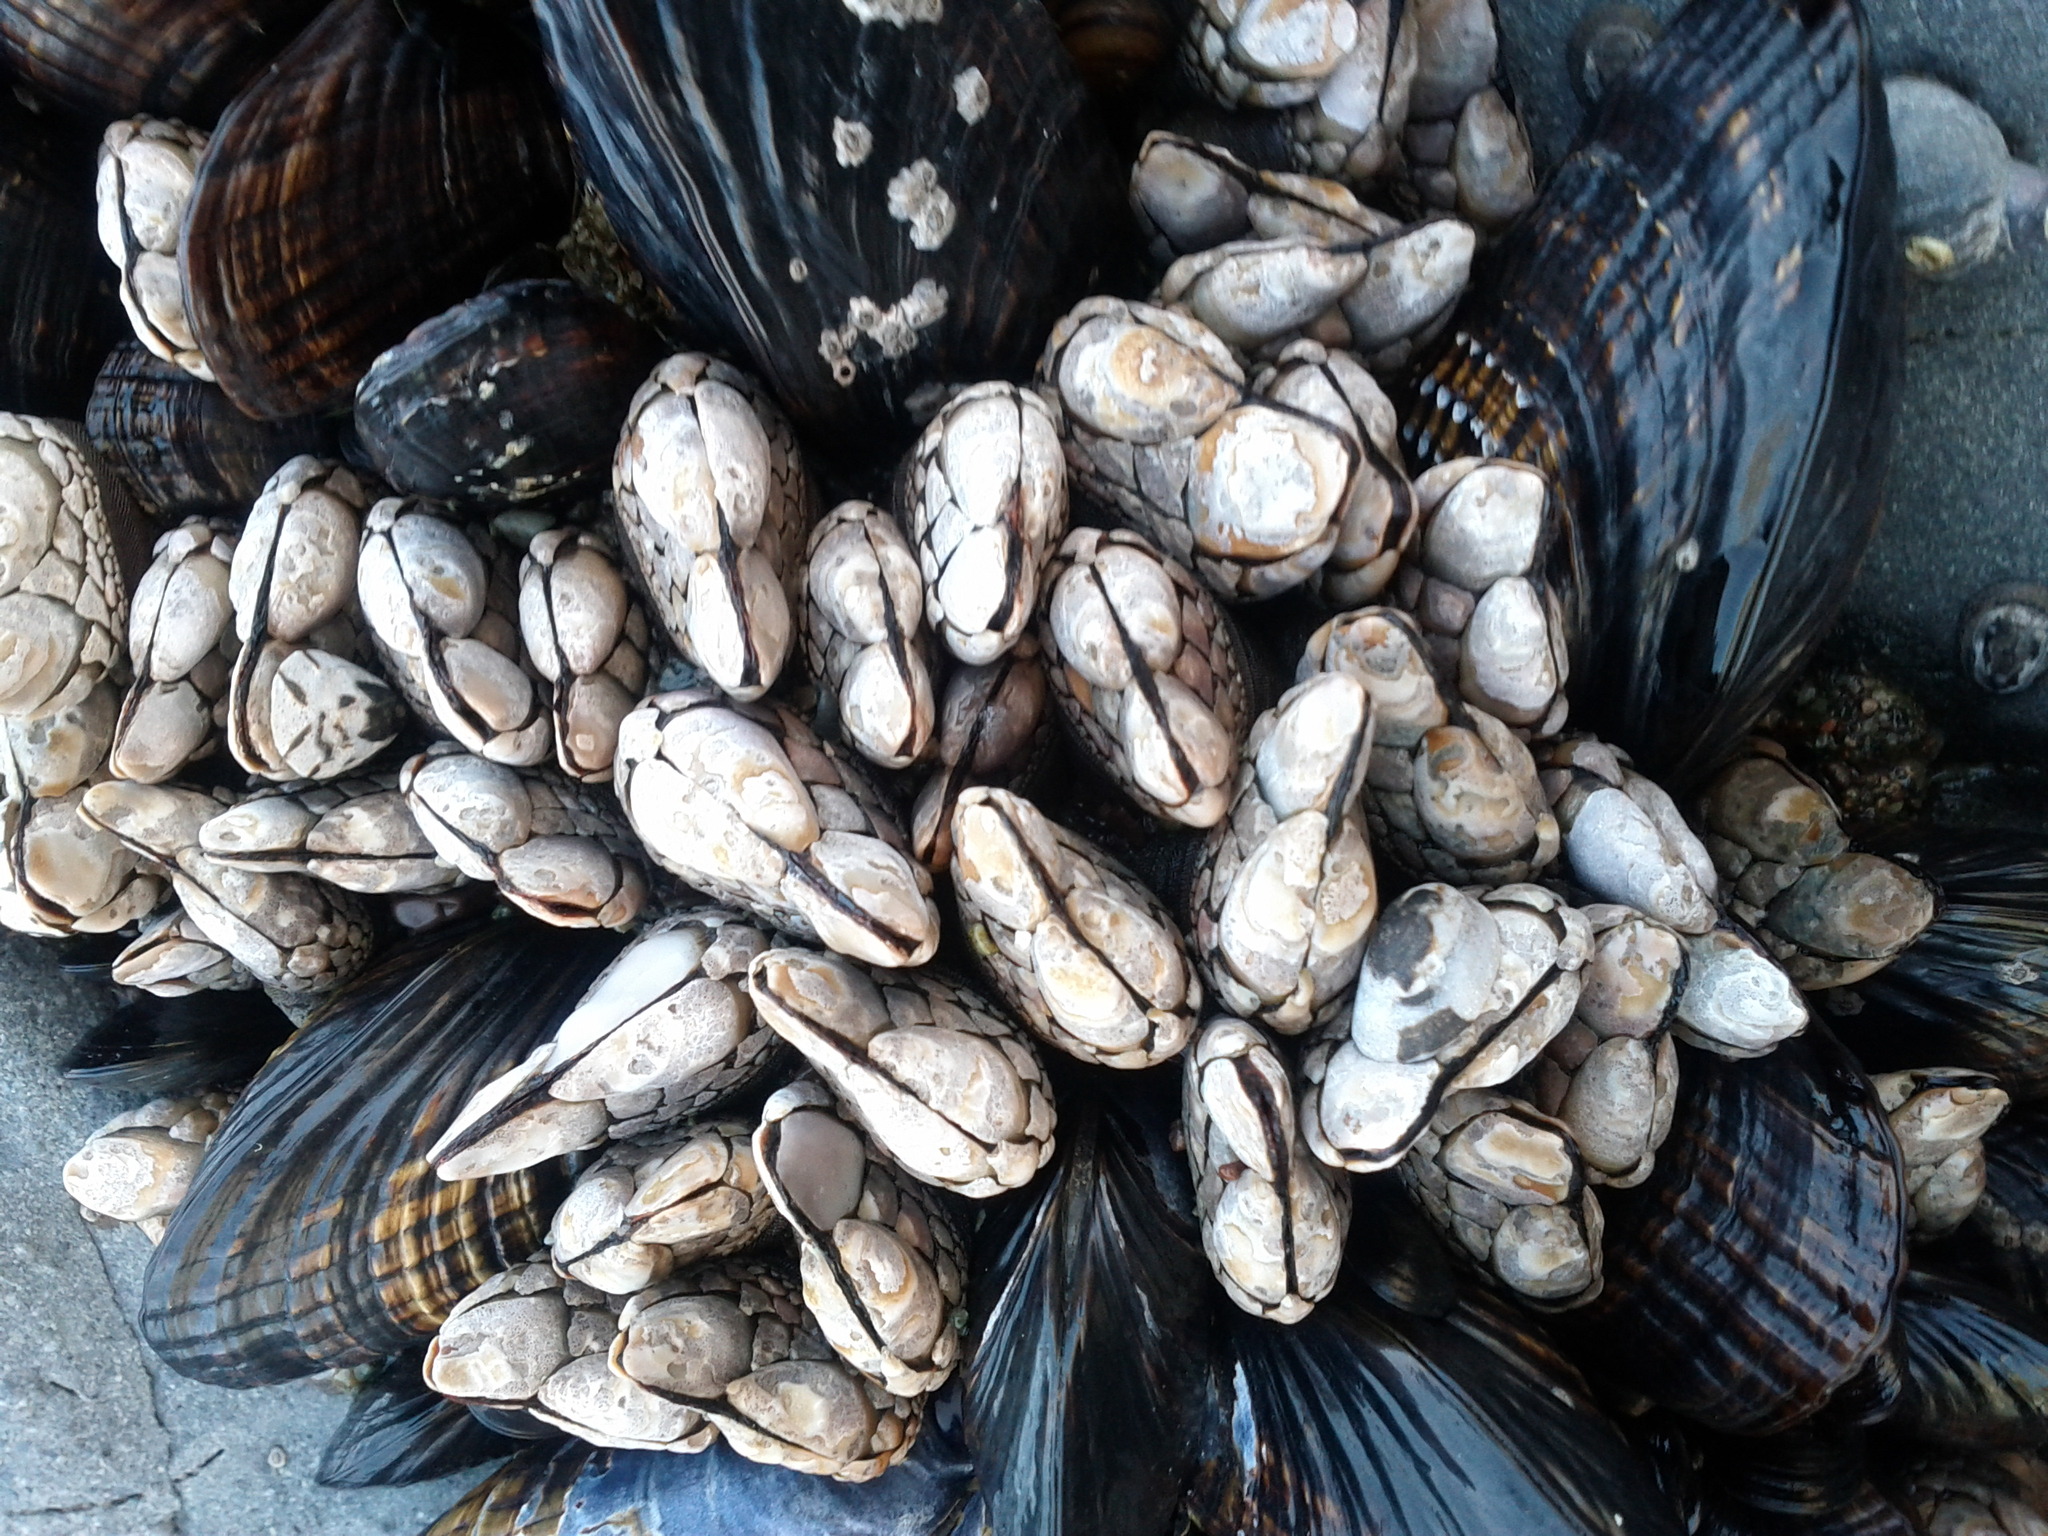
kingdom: Animalia
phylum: Arthropoda
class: Maxillopoda
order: Pedunculata
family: Pollicipedidae
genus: Pollicipes
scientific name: Pollicipes polymerus
